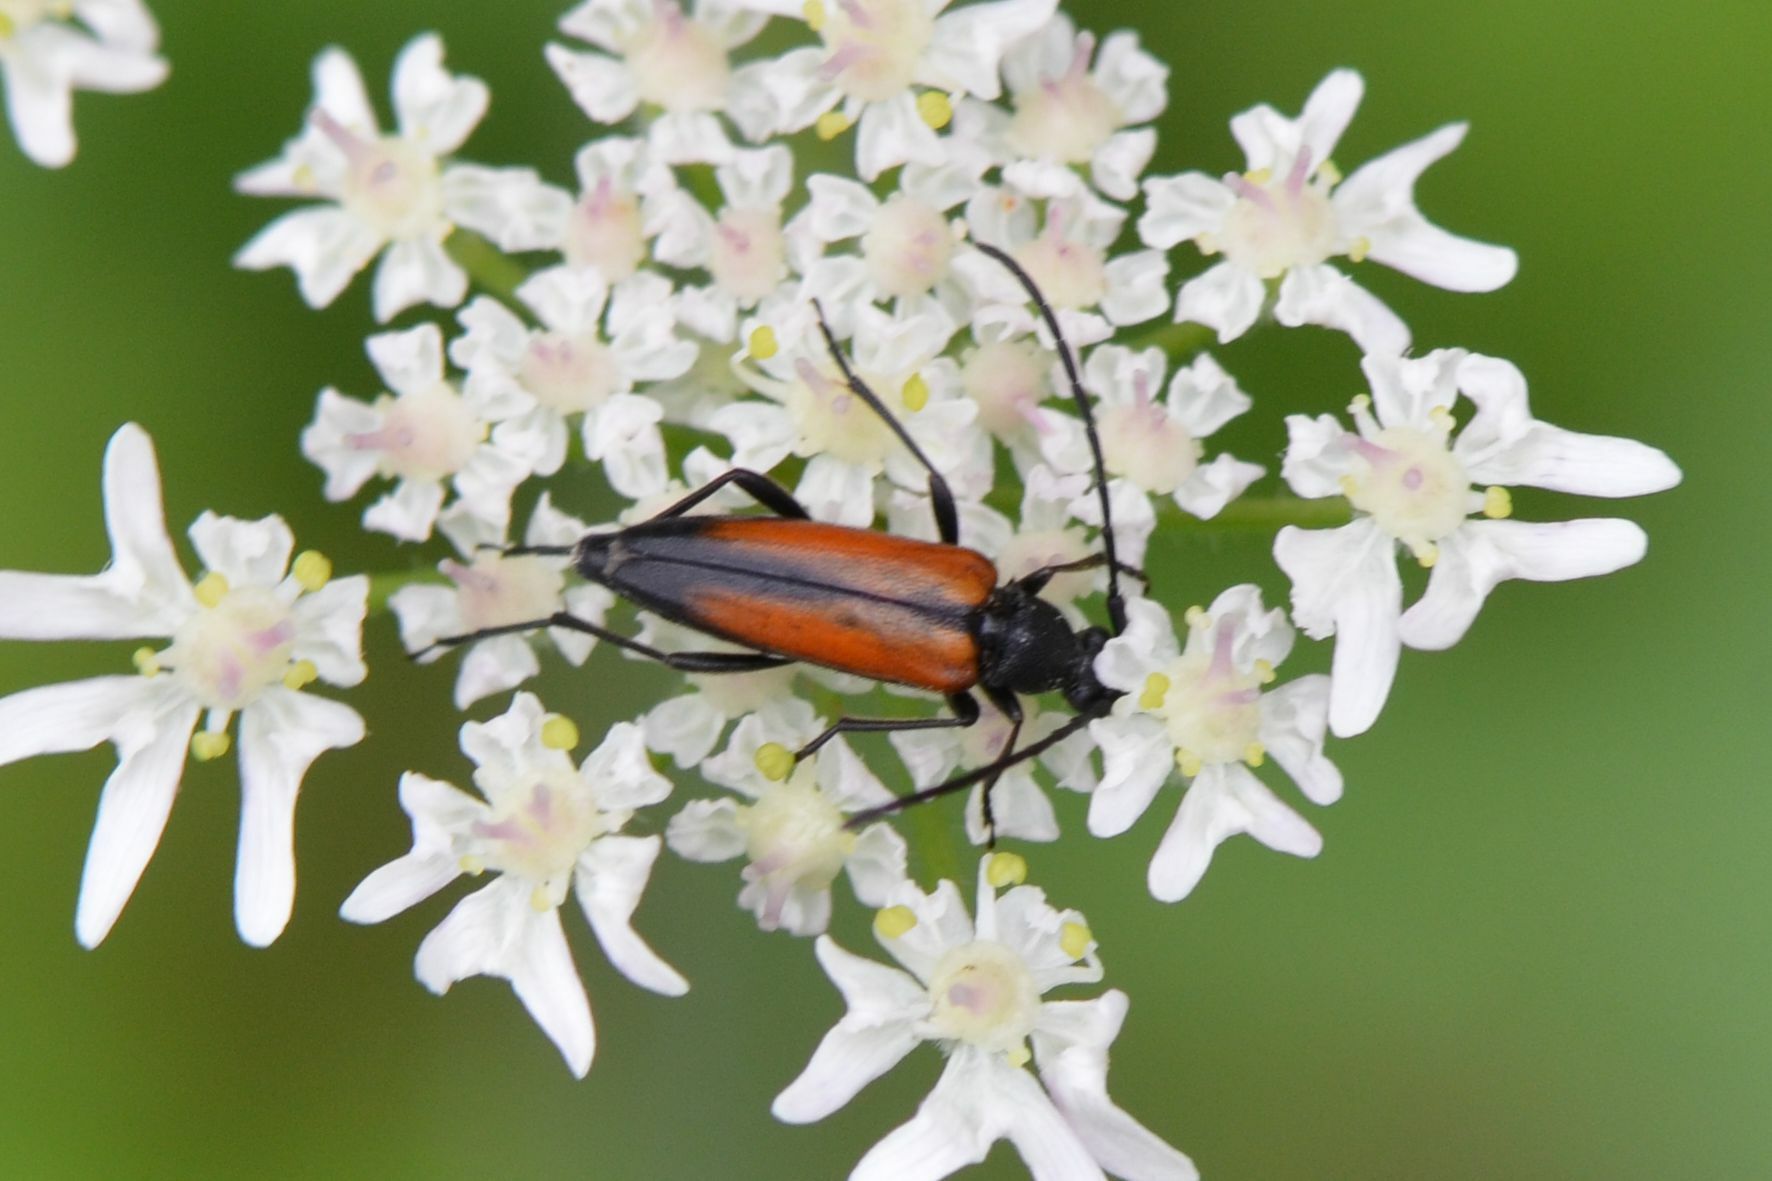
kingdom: Animalia
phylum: Arthropoda
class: Insecta
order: Coleoptera
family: Cerambycidae
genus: Stenurella
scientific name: Stenurella melanura
